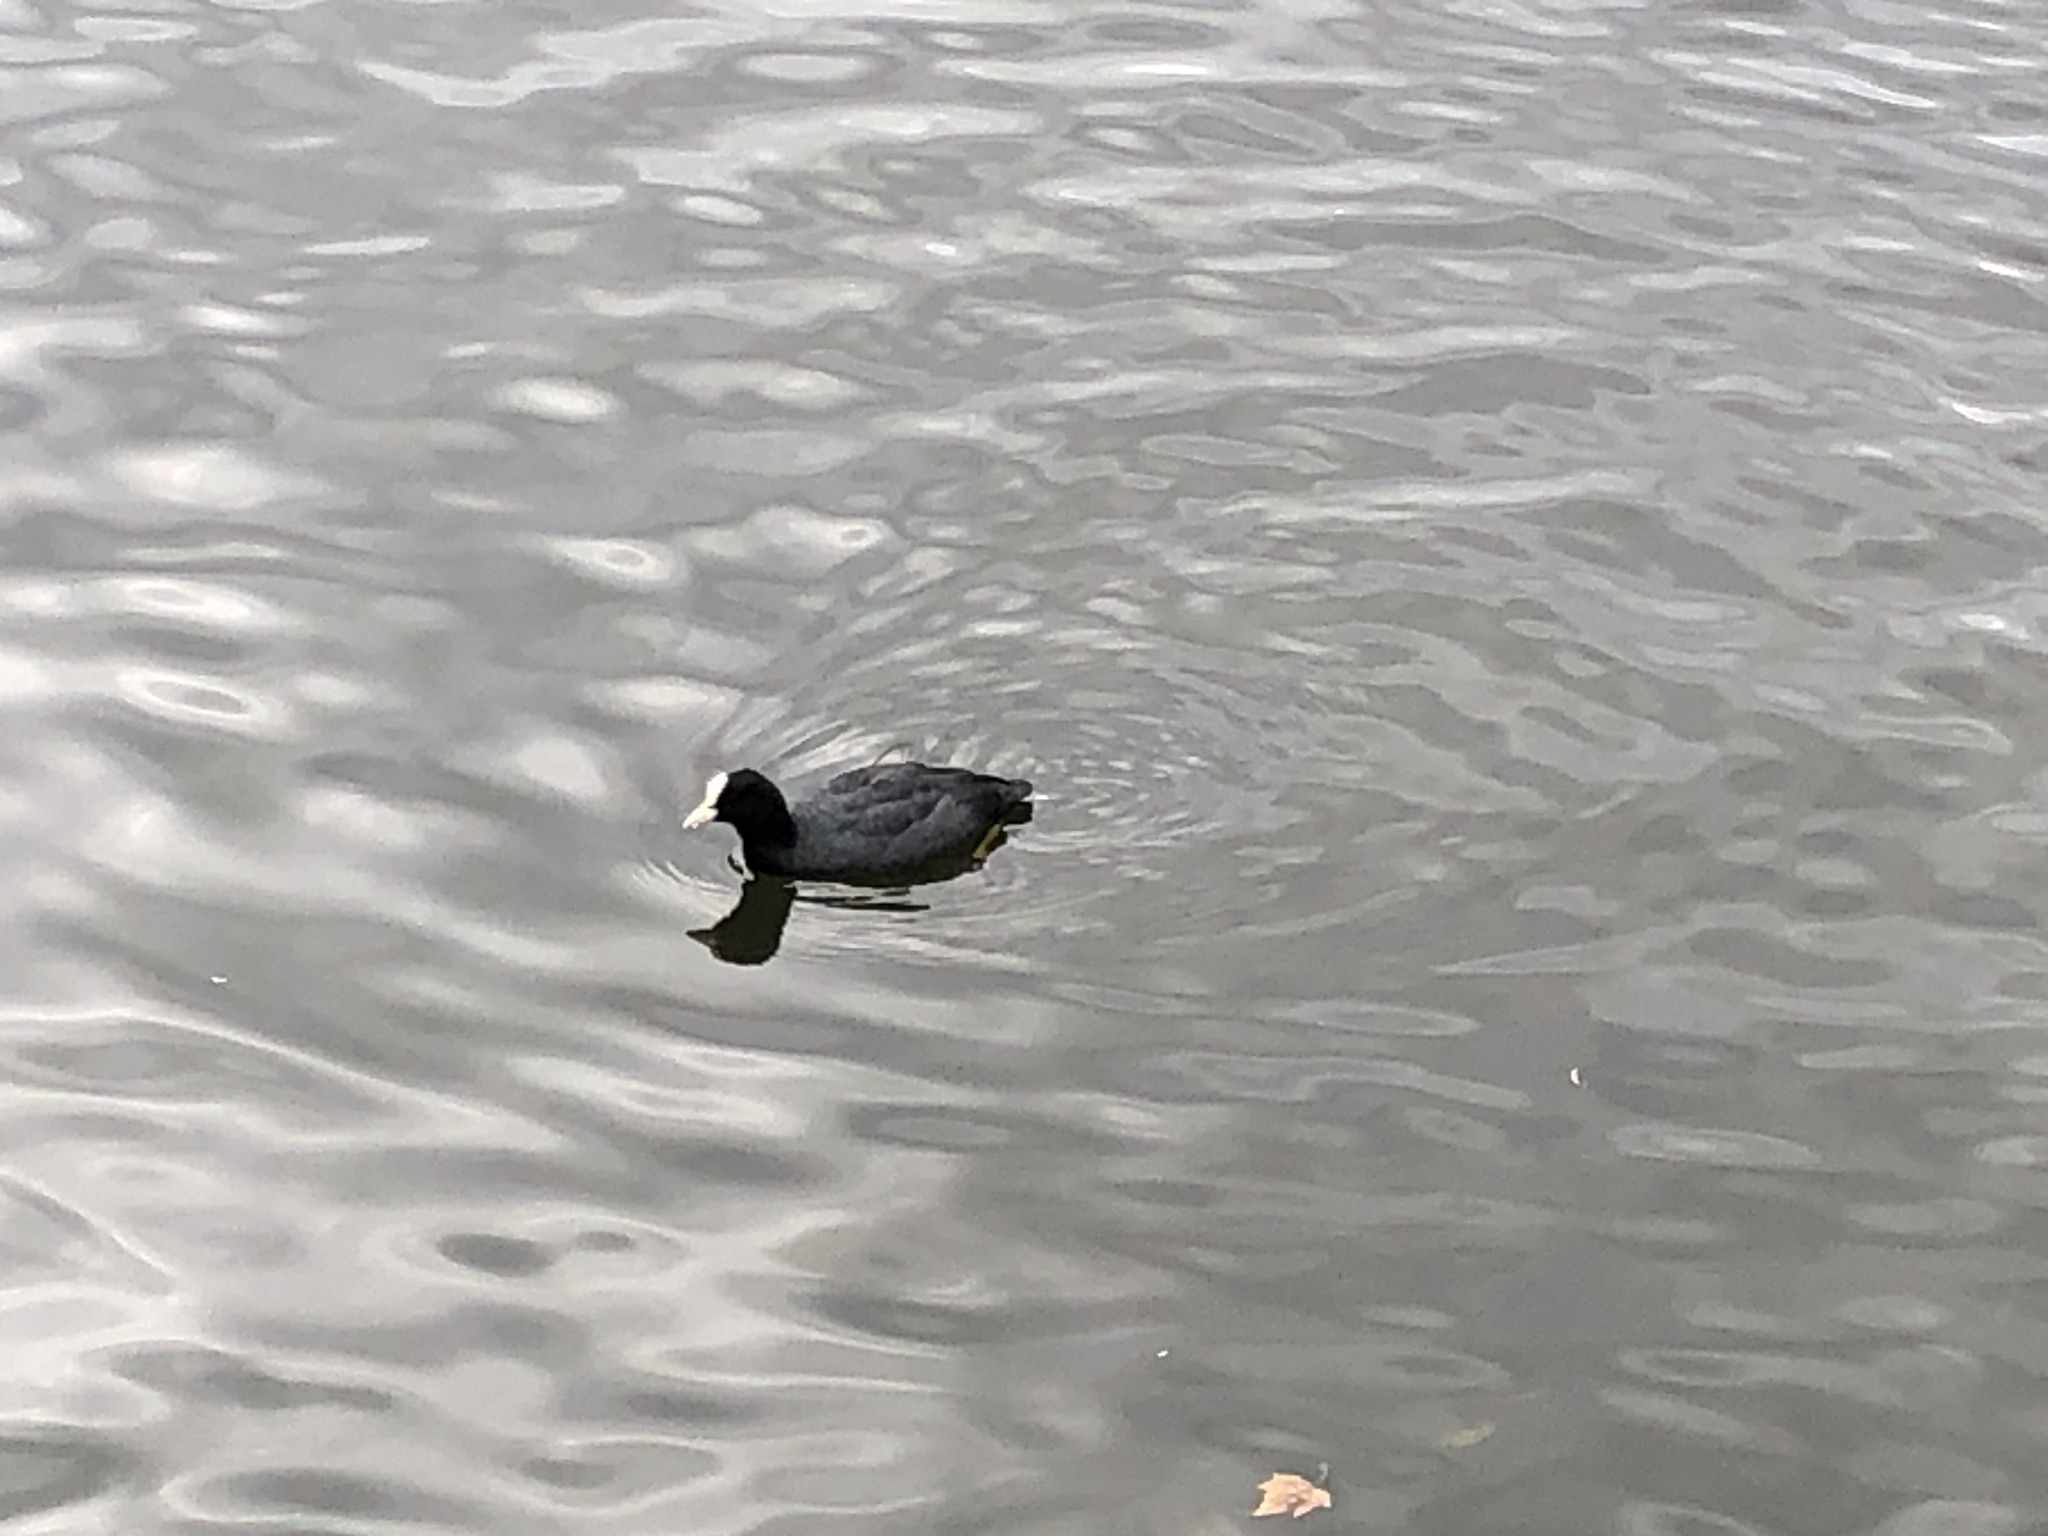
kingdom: Animalia
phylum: Chordata
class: Aves
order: Gruiformes
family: Rallidae
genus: Fulica
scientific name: Fulica atra
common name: Eurasian coot
